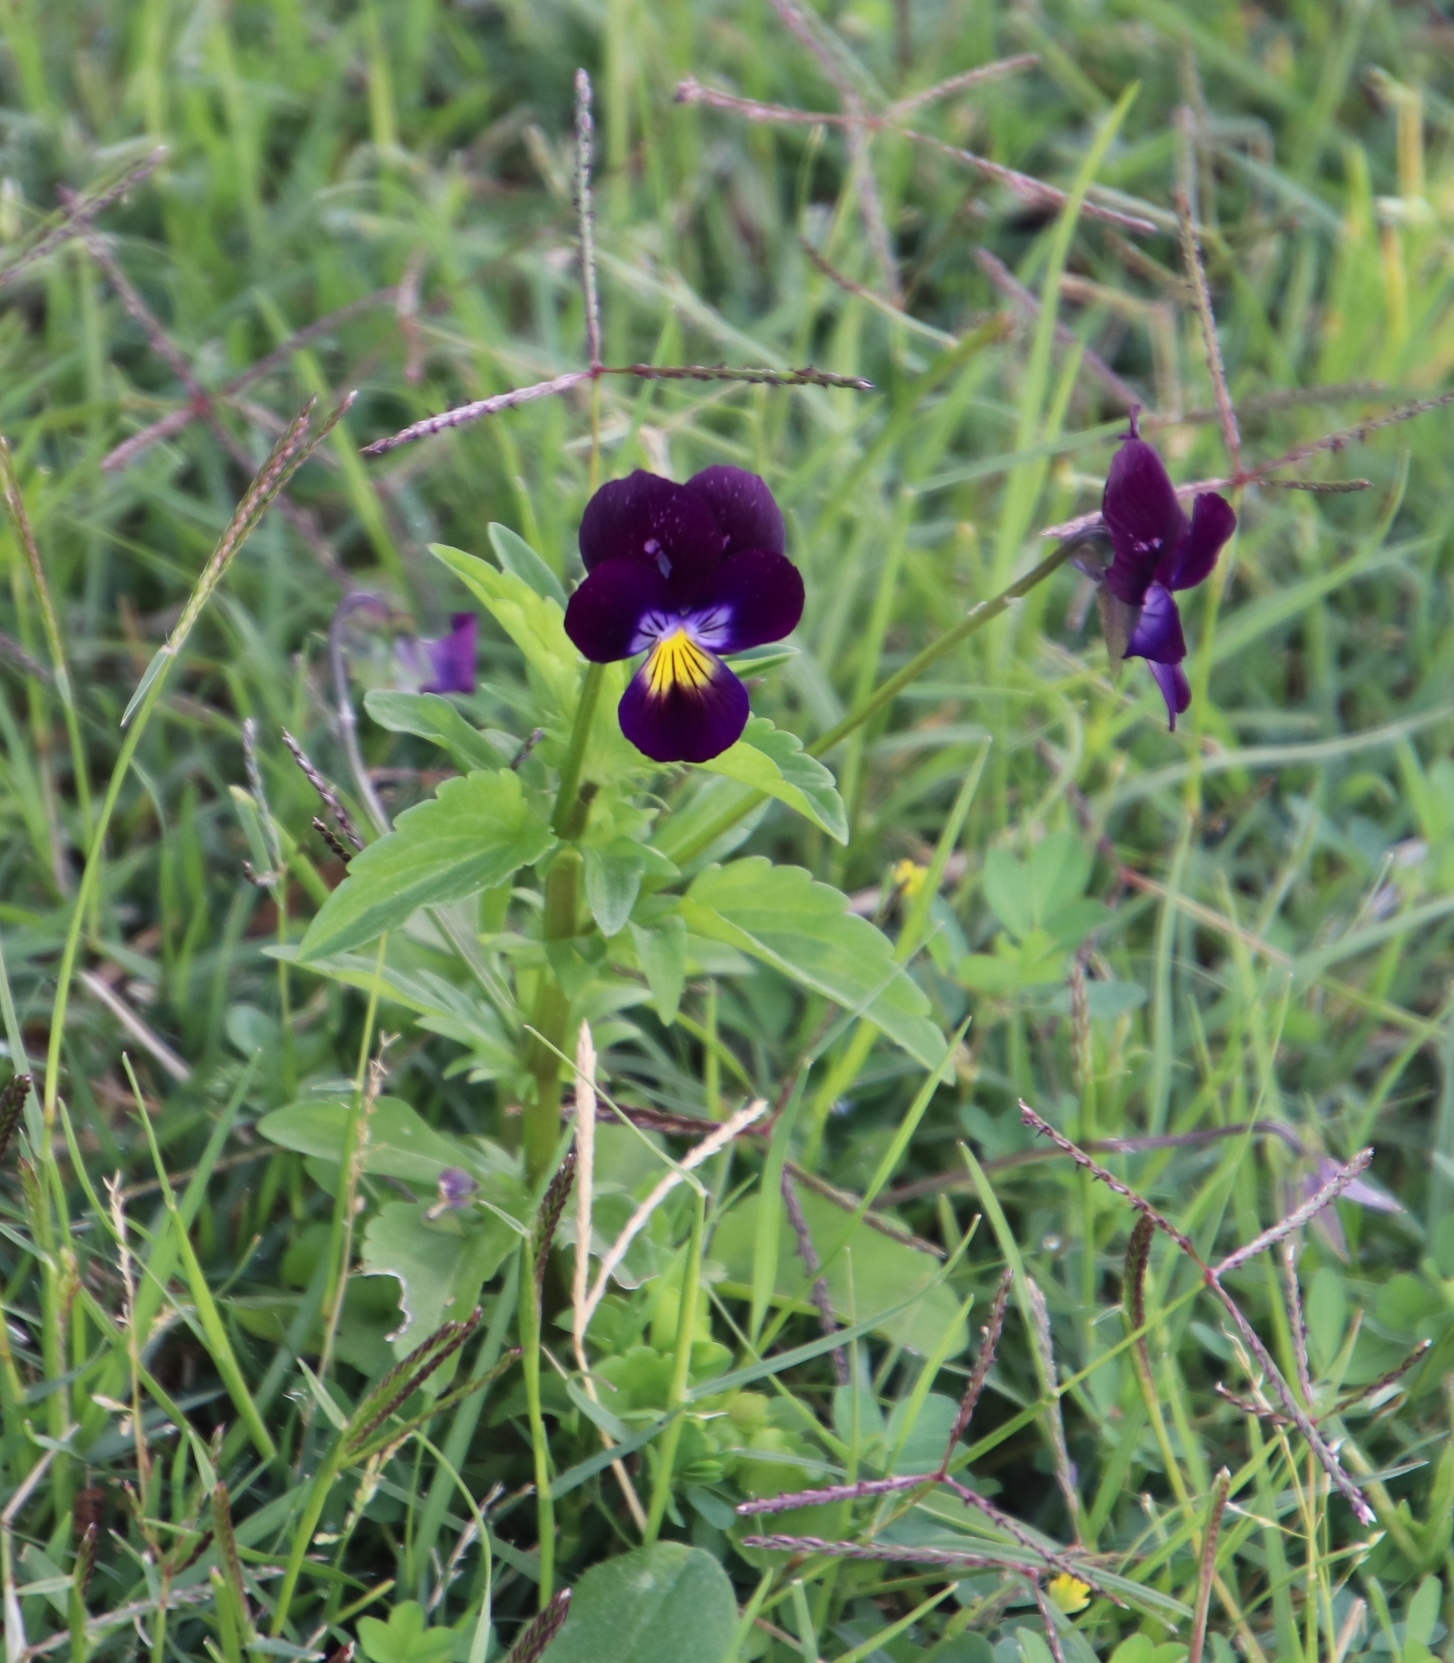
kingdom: Plantae
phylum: Tracheophyta
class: Magnoliopsida
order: Malpighiales
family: Violaceae
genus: Viola
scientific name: Viola williamsii
